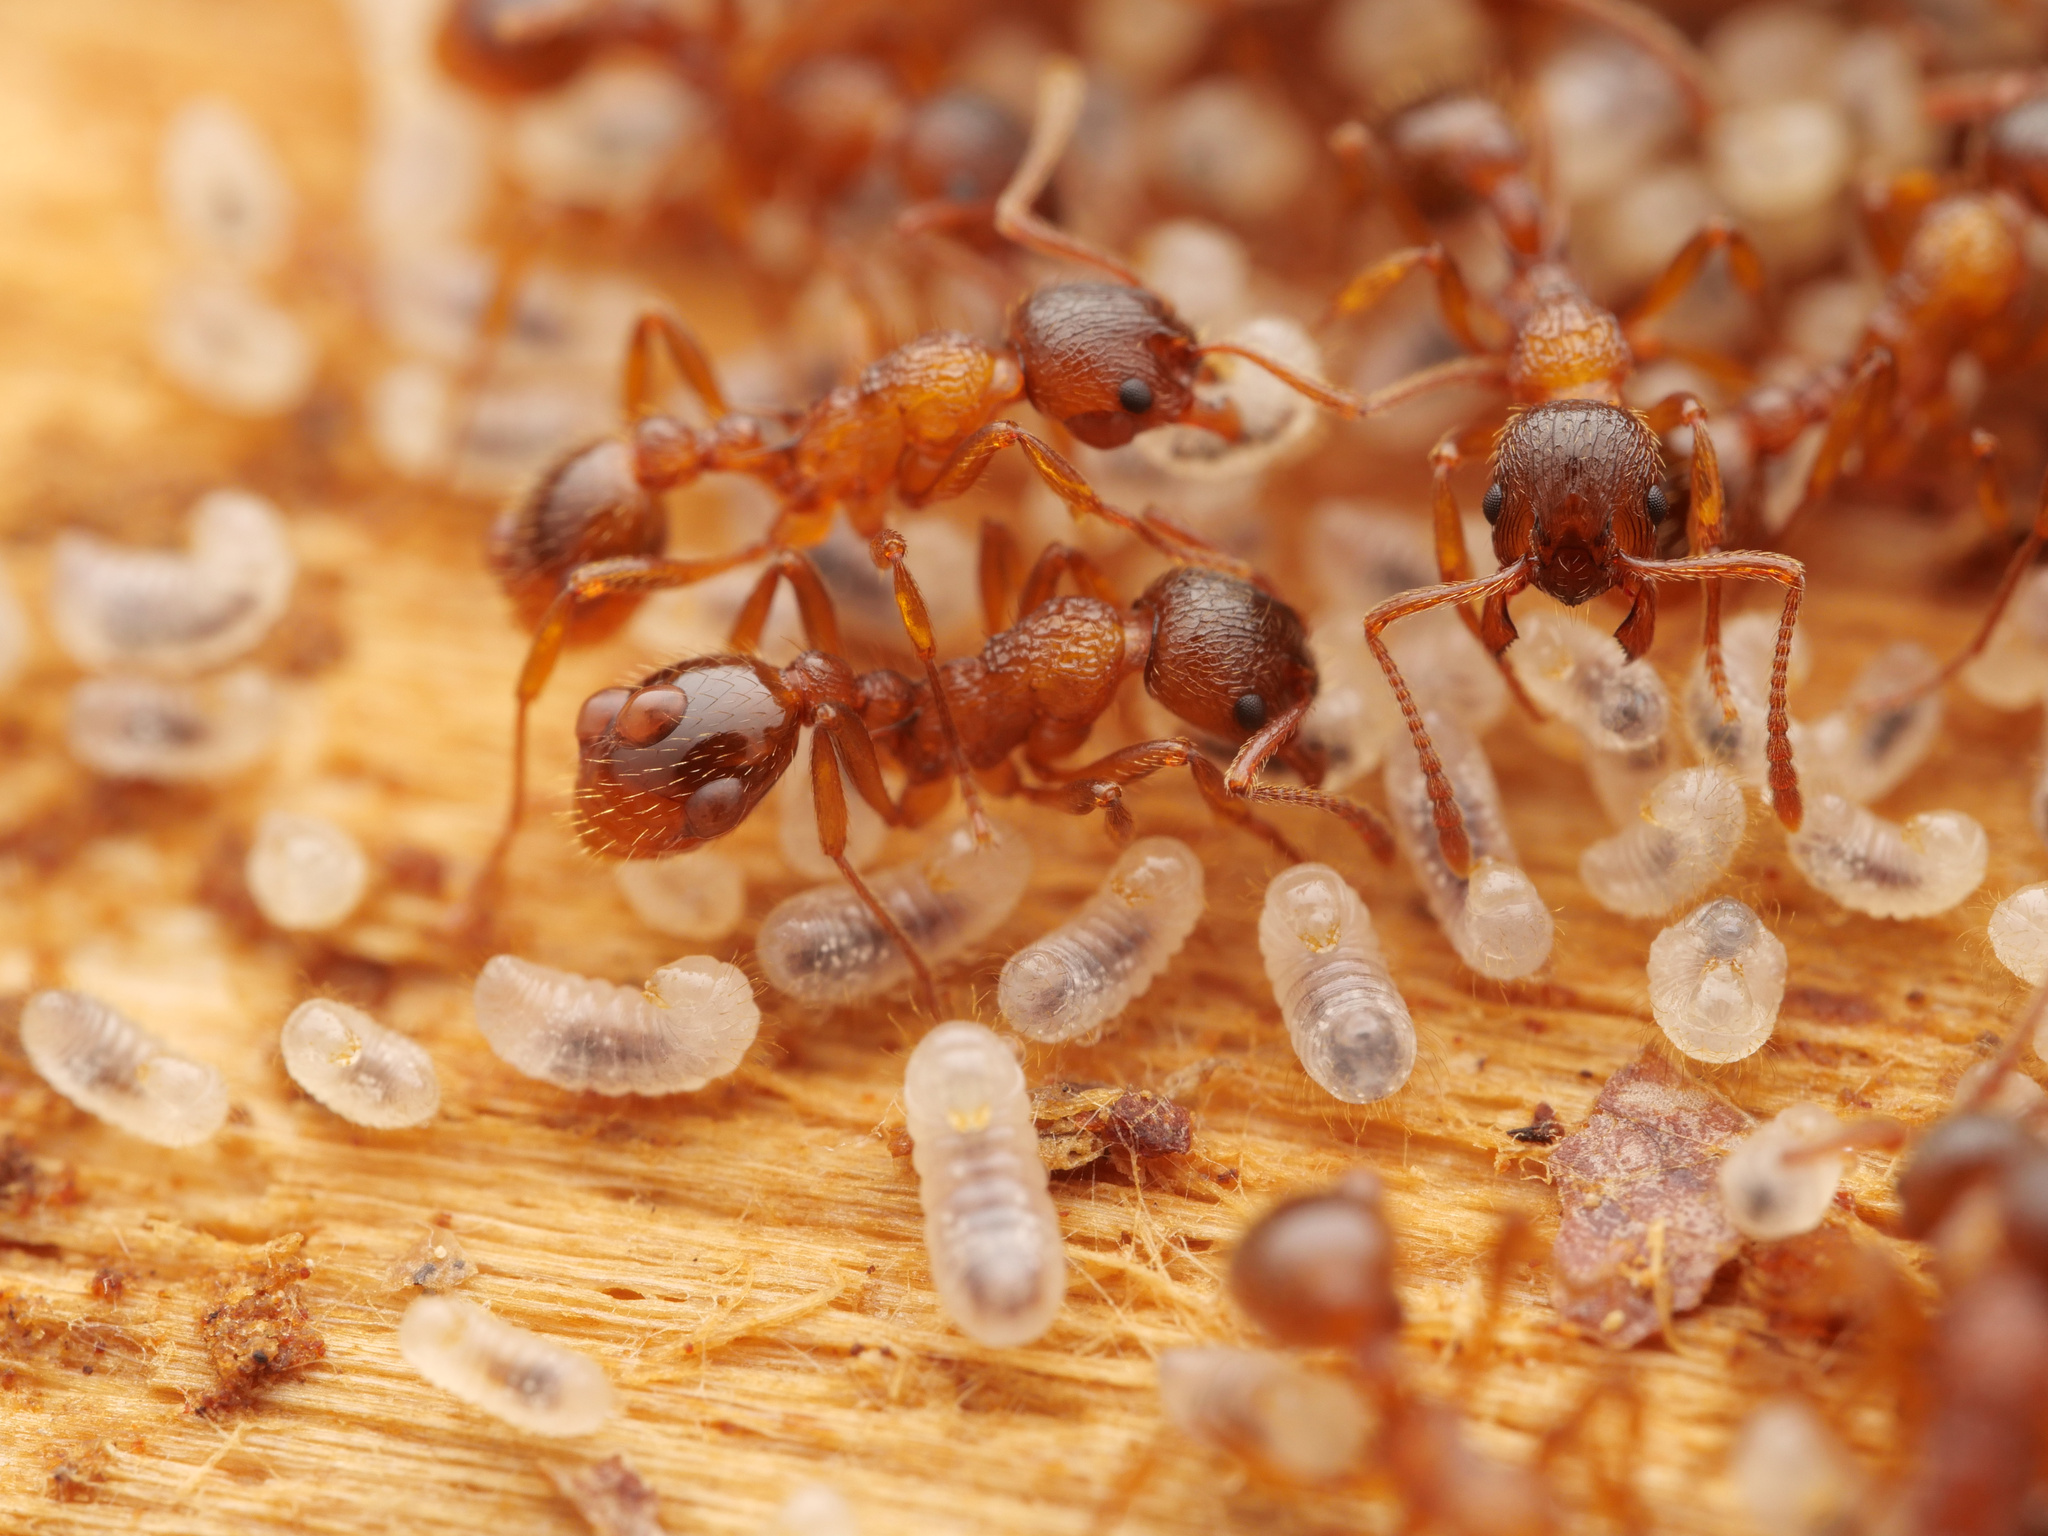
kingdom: Animalia
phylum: Arthropoda
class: Insecta
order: Hymenoptera
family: Formicidae
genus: Myrmica
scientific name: Myrmica ruginodis
